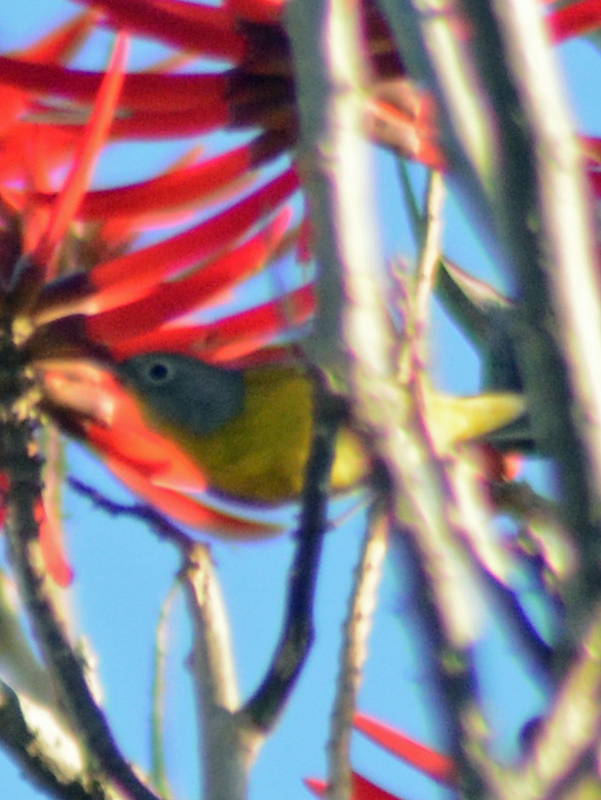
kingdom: Animalia
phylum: Chordata
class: Aves
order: Passeriformes
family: Parulidae
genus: Leiothlypis
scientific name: Leiothlypis ruficapilla
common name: Nashville warbler
